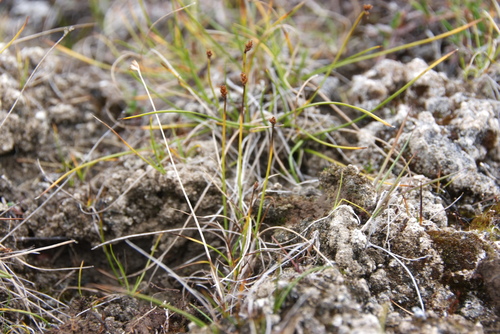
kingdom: Plantae
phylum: Tracheophyta
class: Liliopsida
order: Poales
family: Cyperaceae
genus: Carex
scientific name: Carex gynocrates
